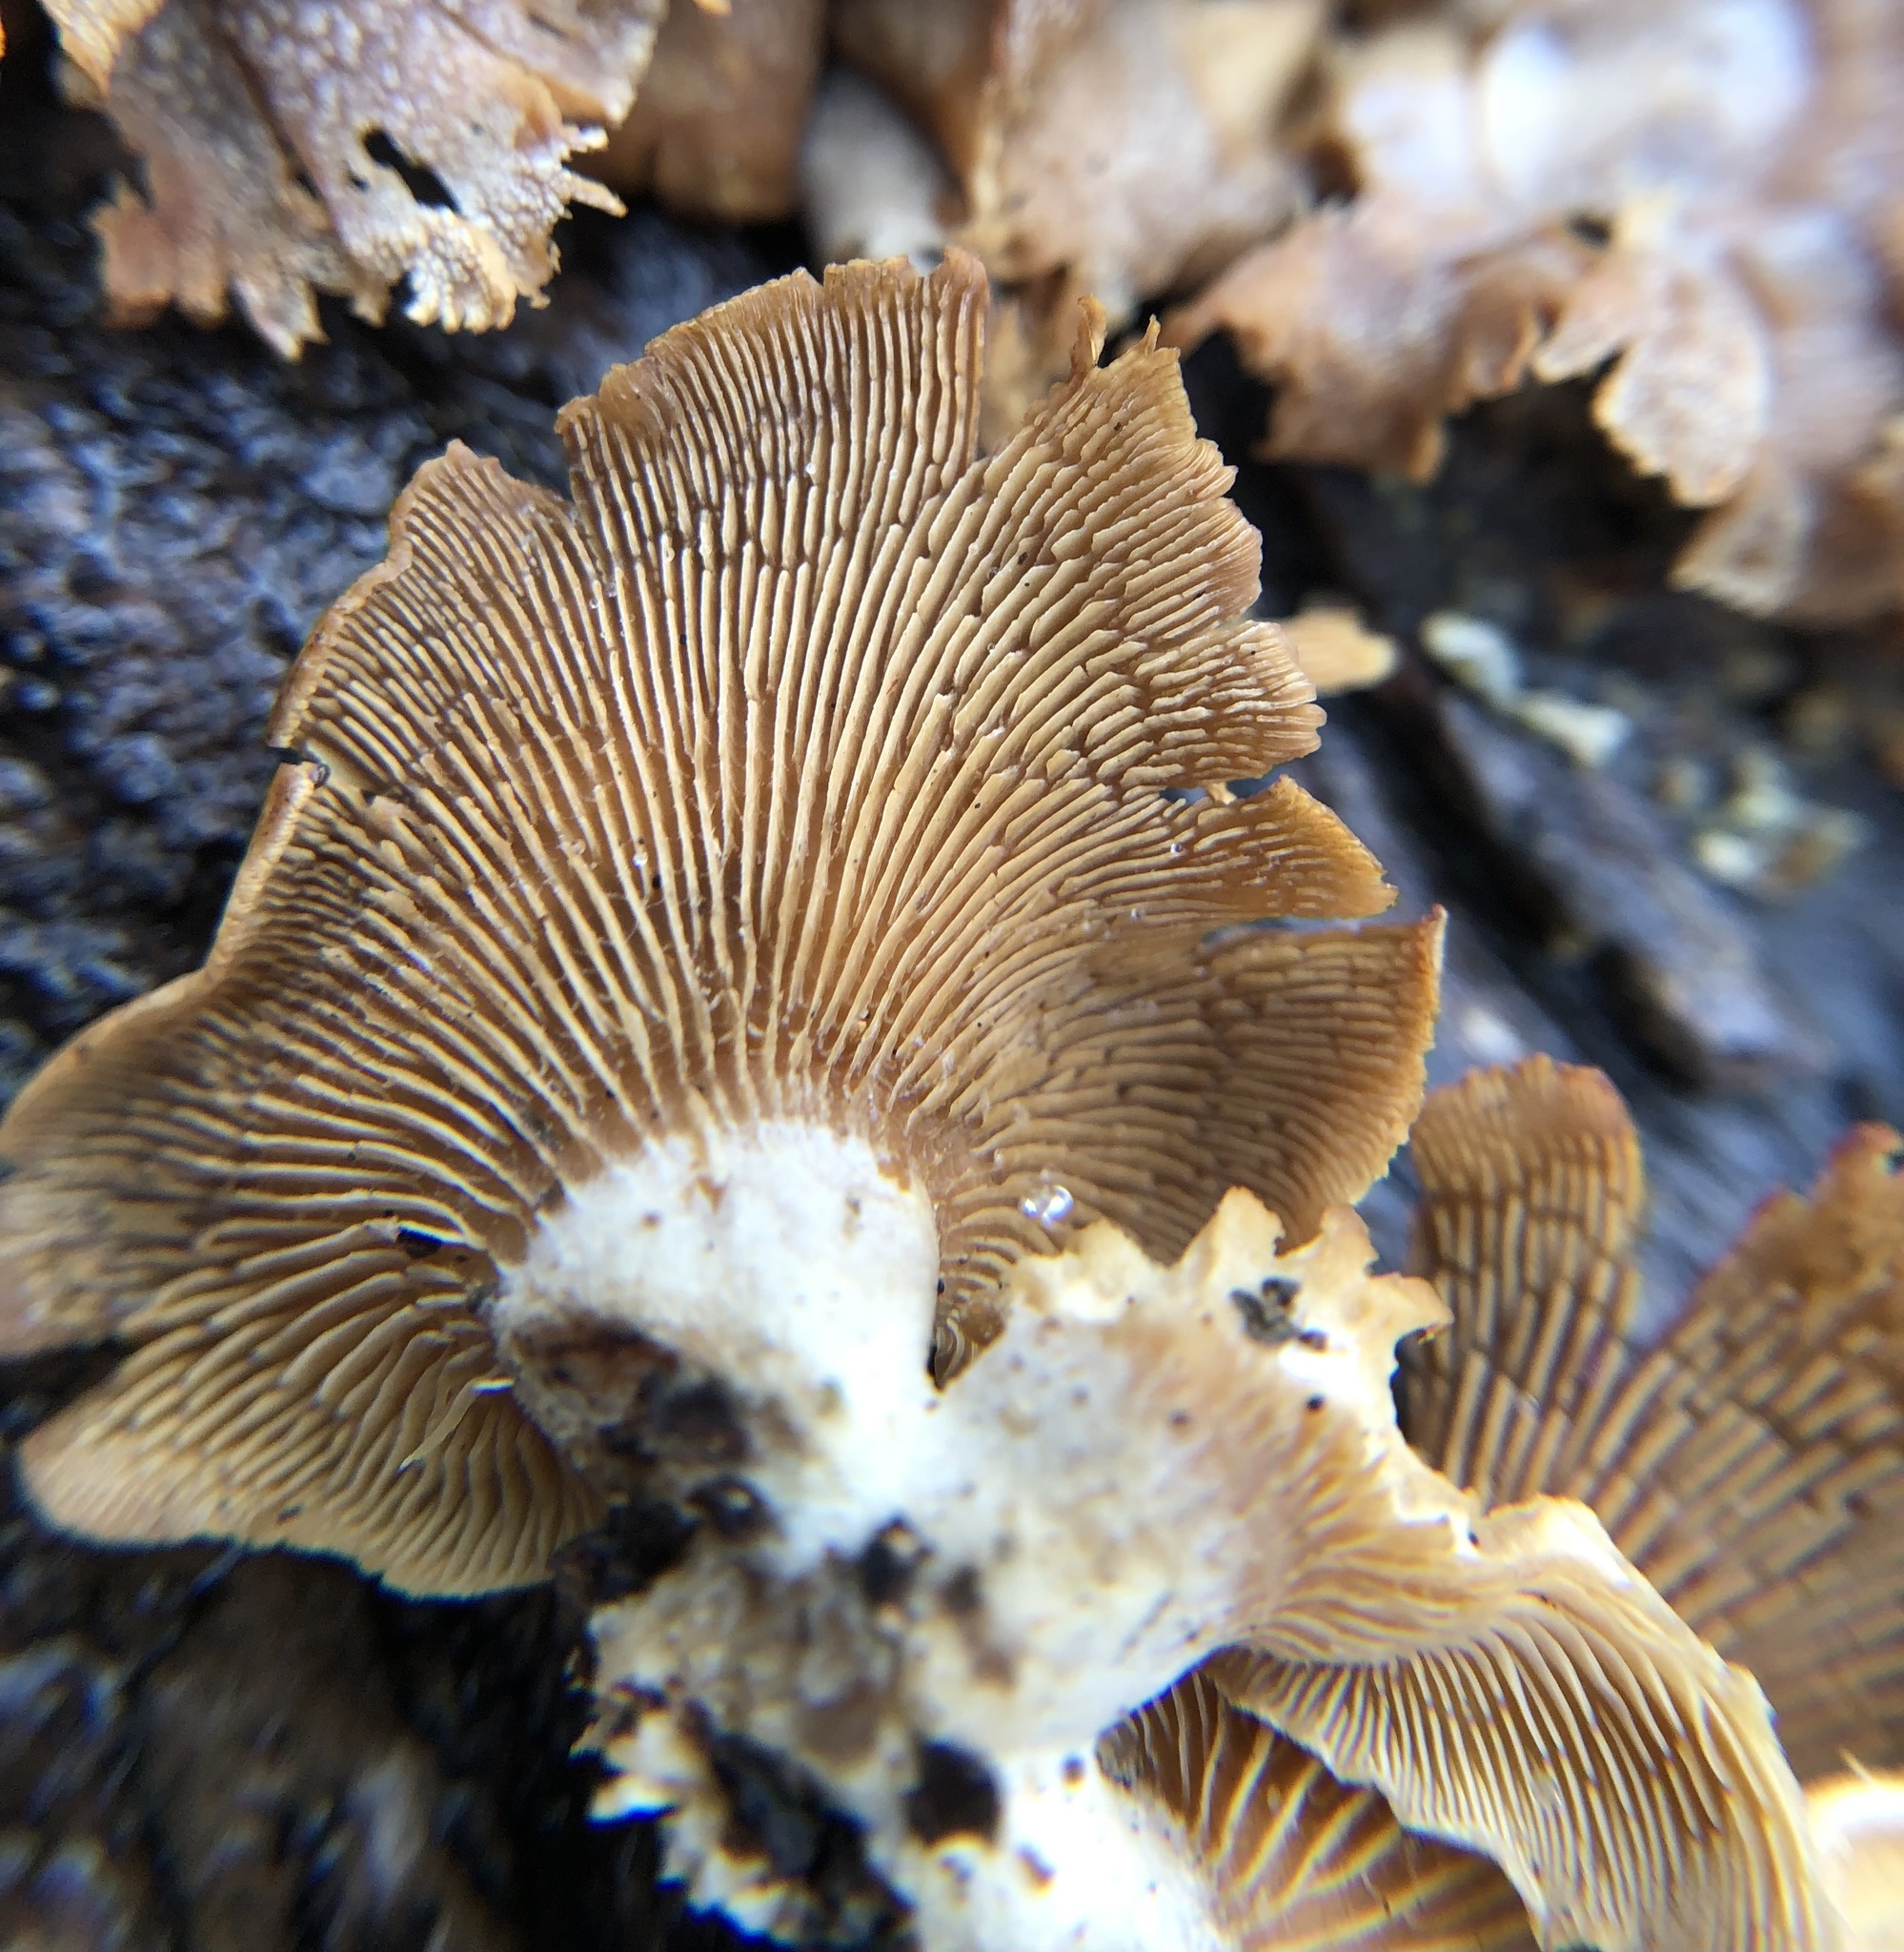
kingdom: Fungi
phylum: Basidiomycota
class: Agaricomycetes
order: Agaricales
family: Mycenaceae
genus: Panellus
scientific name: Panellus stipticus
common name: Bitter oysterling
